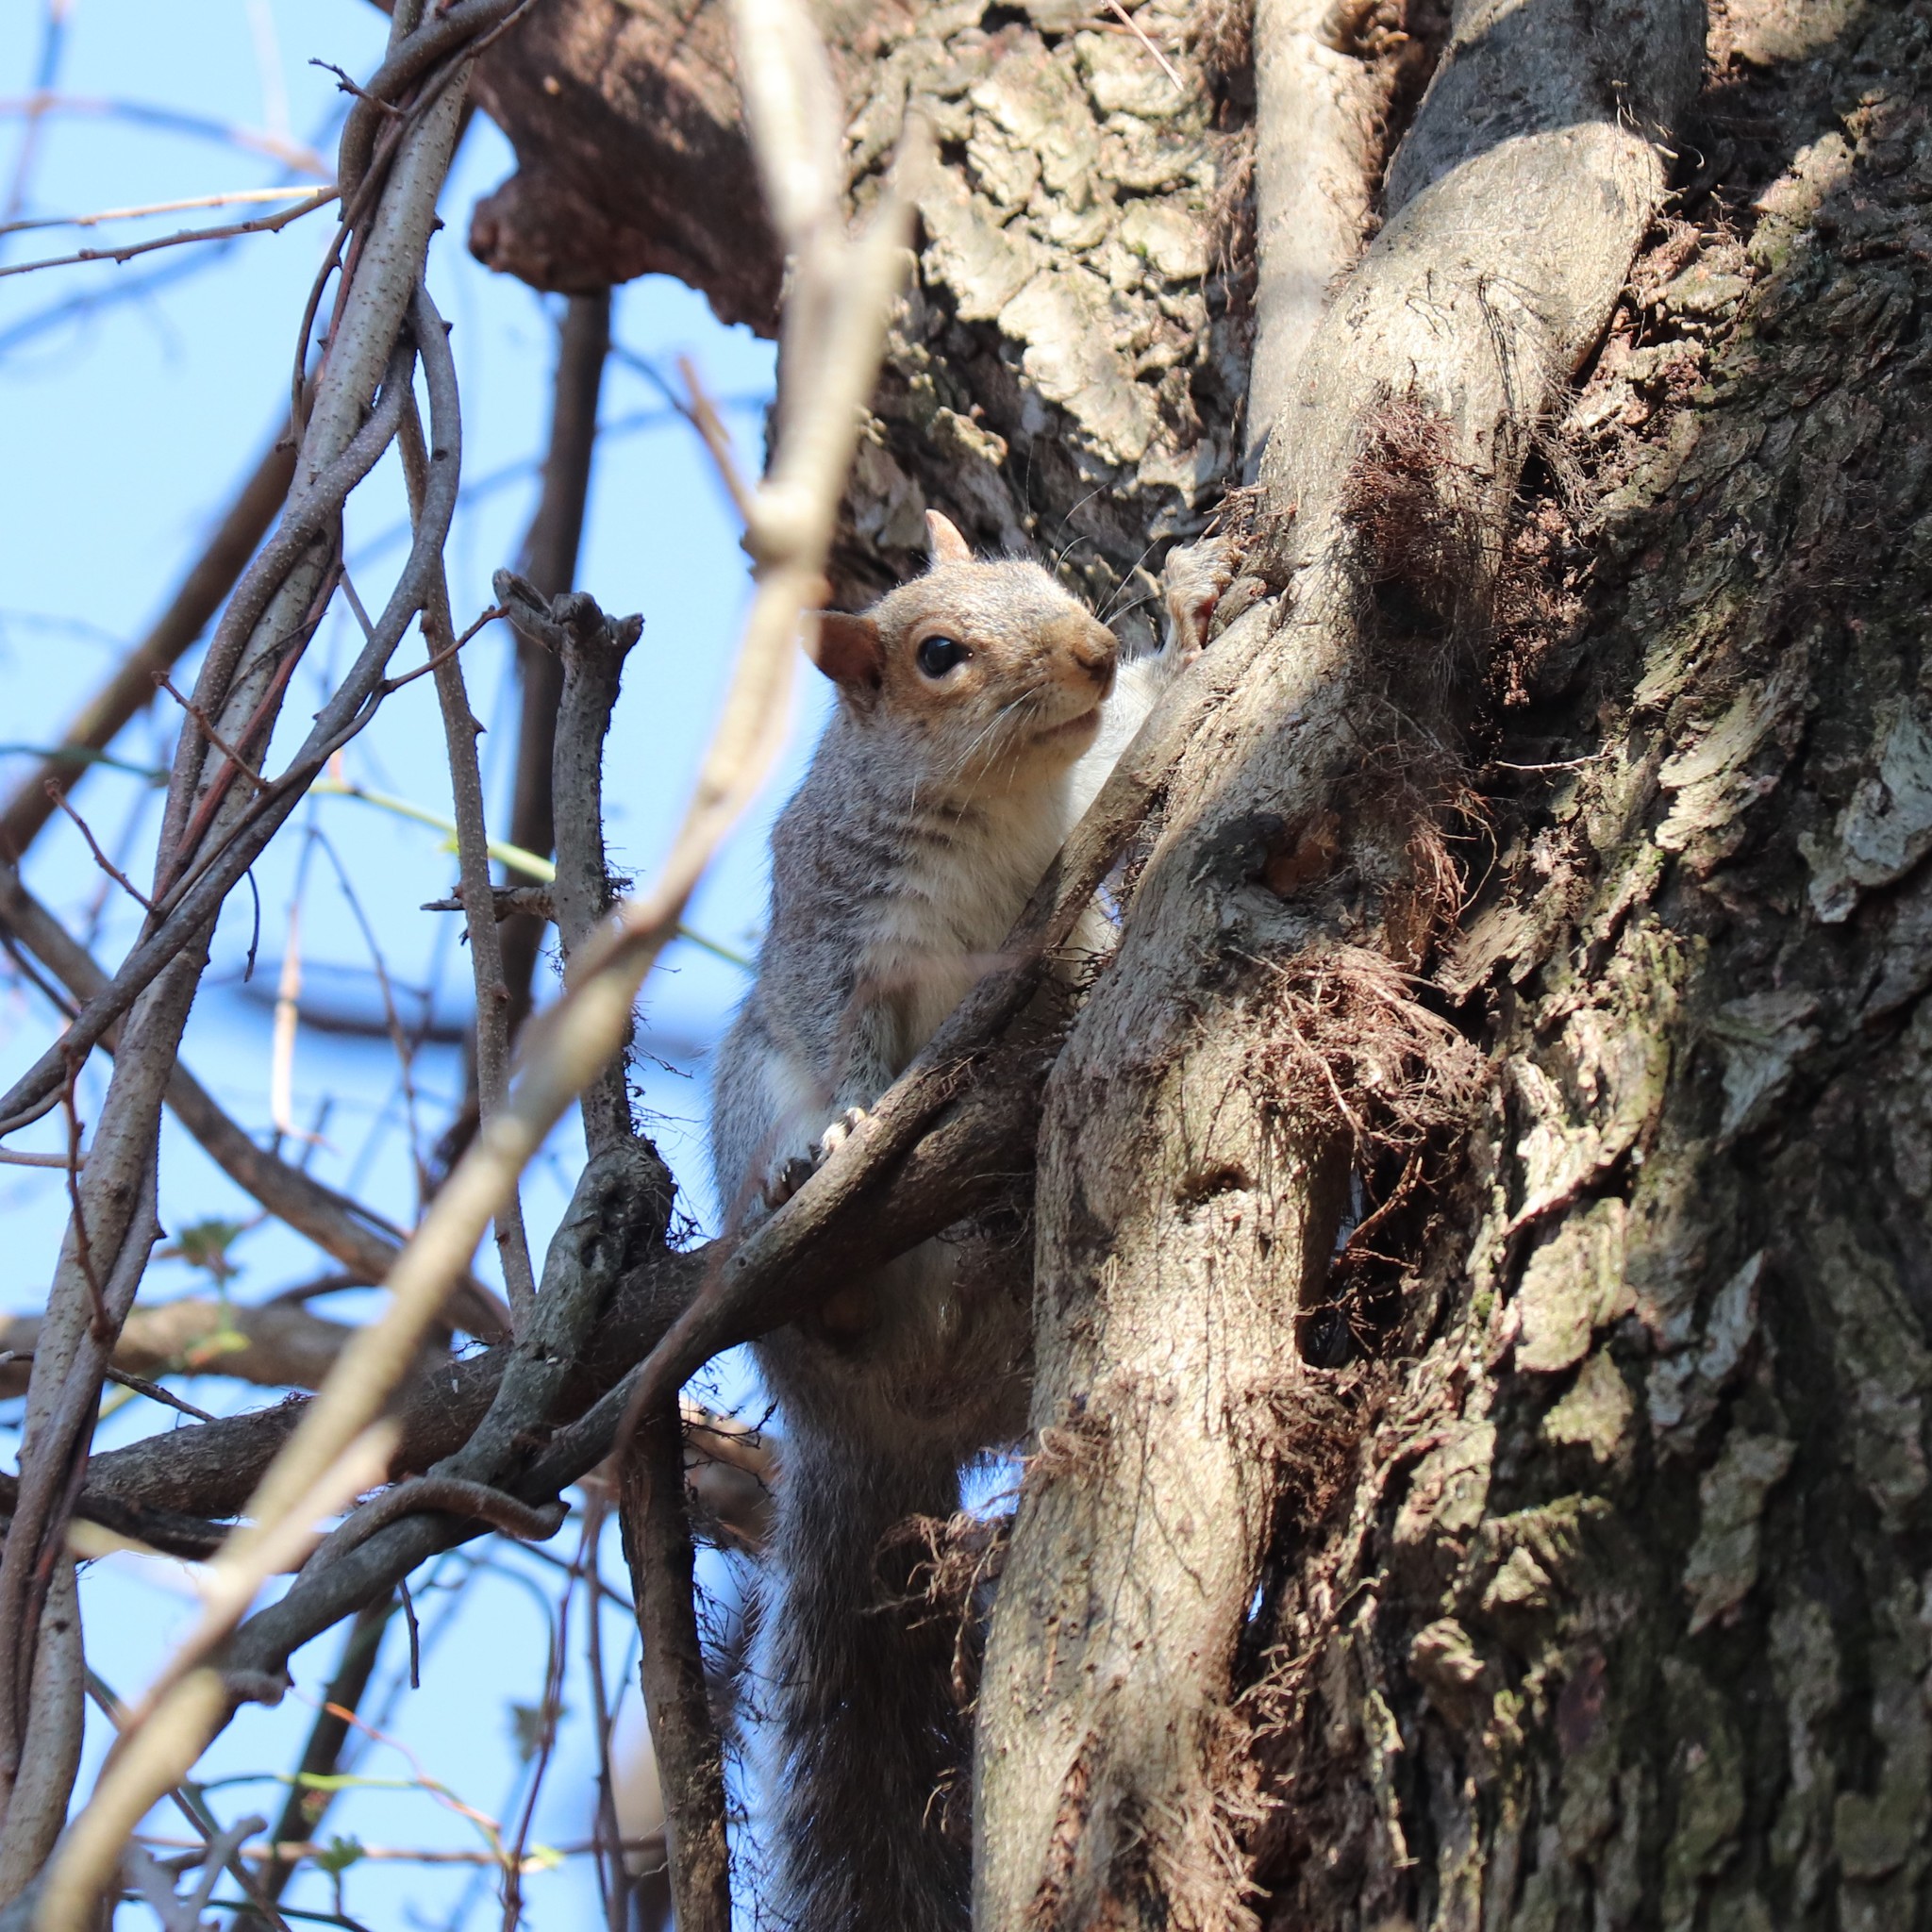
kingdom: Plantae
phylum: Tracheophyta
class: Magnoliopsida
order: Sapindales
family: Anacardiaceae
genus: Toxicodendron
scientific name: Toxicodendron radicans
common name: Poison ivy
